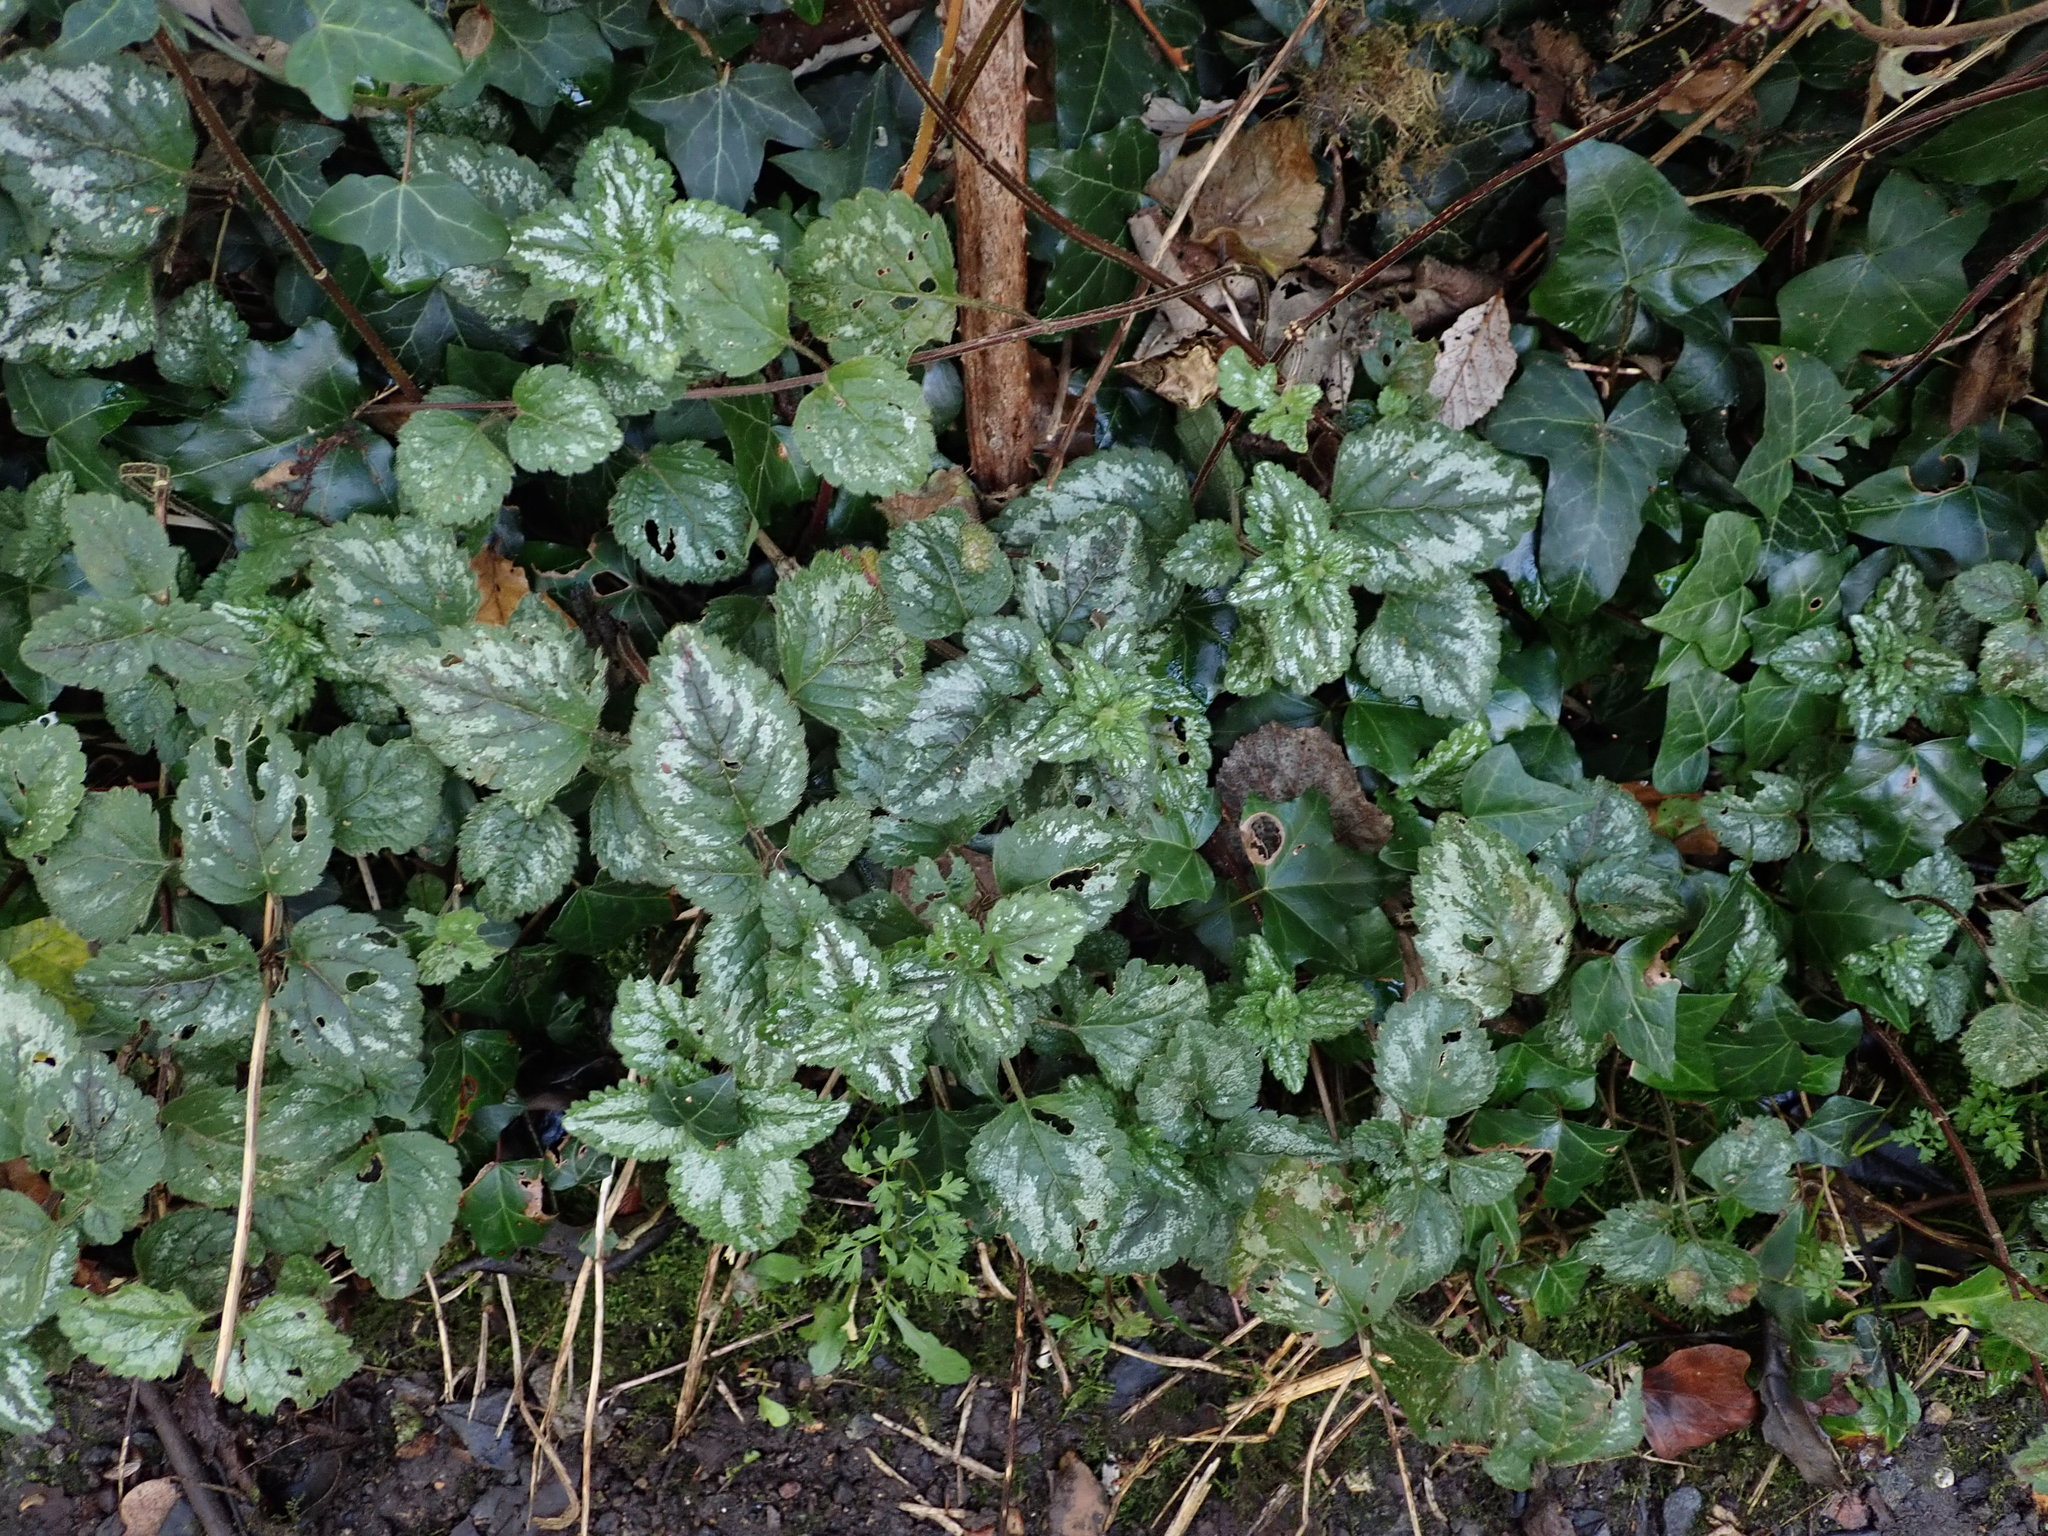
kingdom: Plantae
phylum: Tracheophyta
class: Magnoliopsida
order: Lamiales
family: Lamiaceae
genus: Lamium
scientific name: Lamium galeobdolon
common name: Yellow archangel
